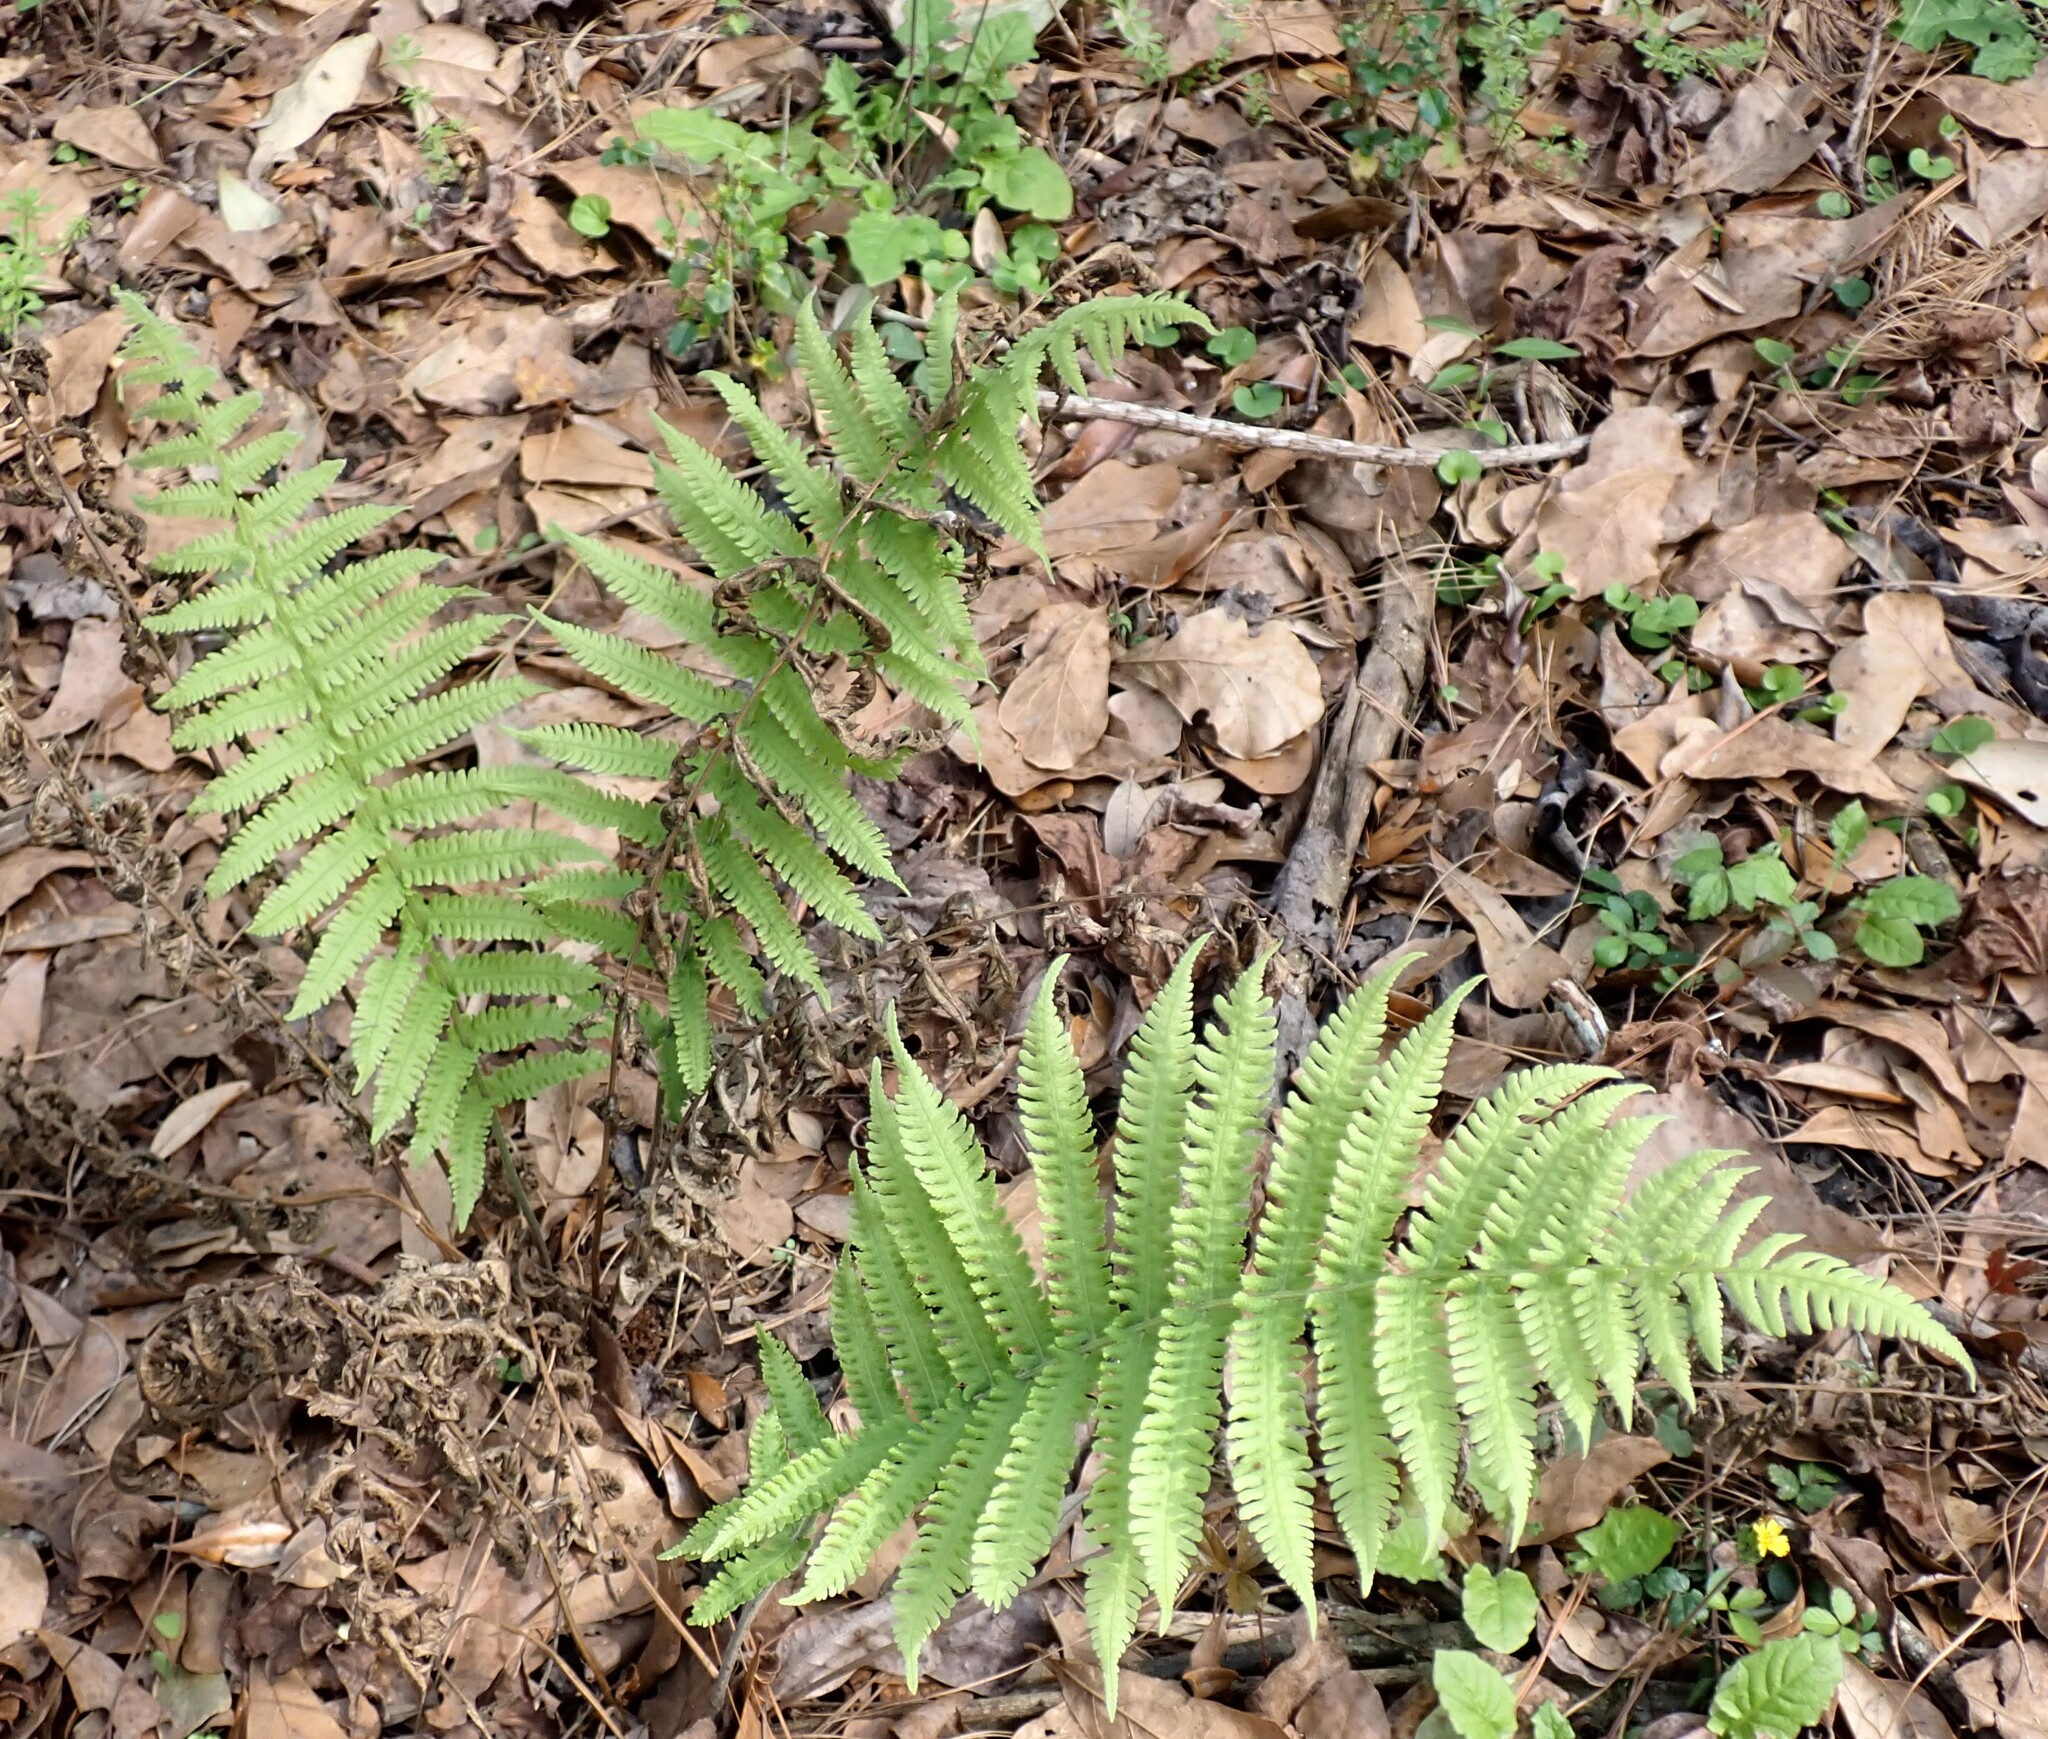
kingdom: Plantae
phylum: Tracheophyta
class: Polypodiopsida
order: Polypodiales
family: Thelypteridaceae
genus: Christella
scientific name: Christella dentata
